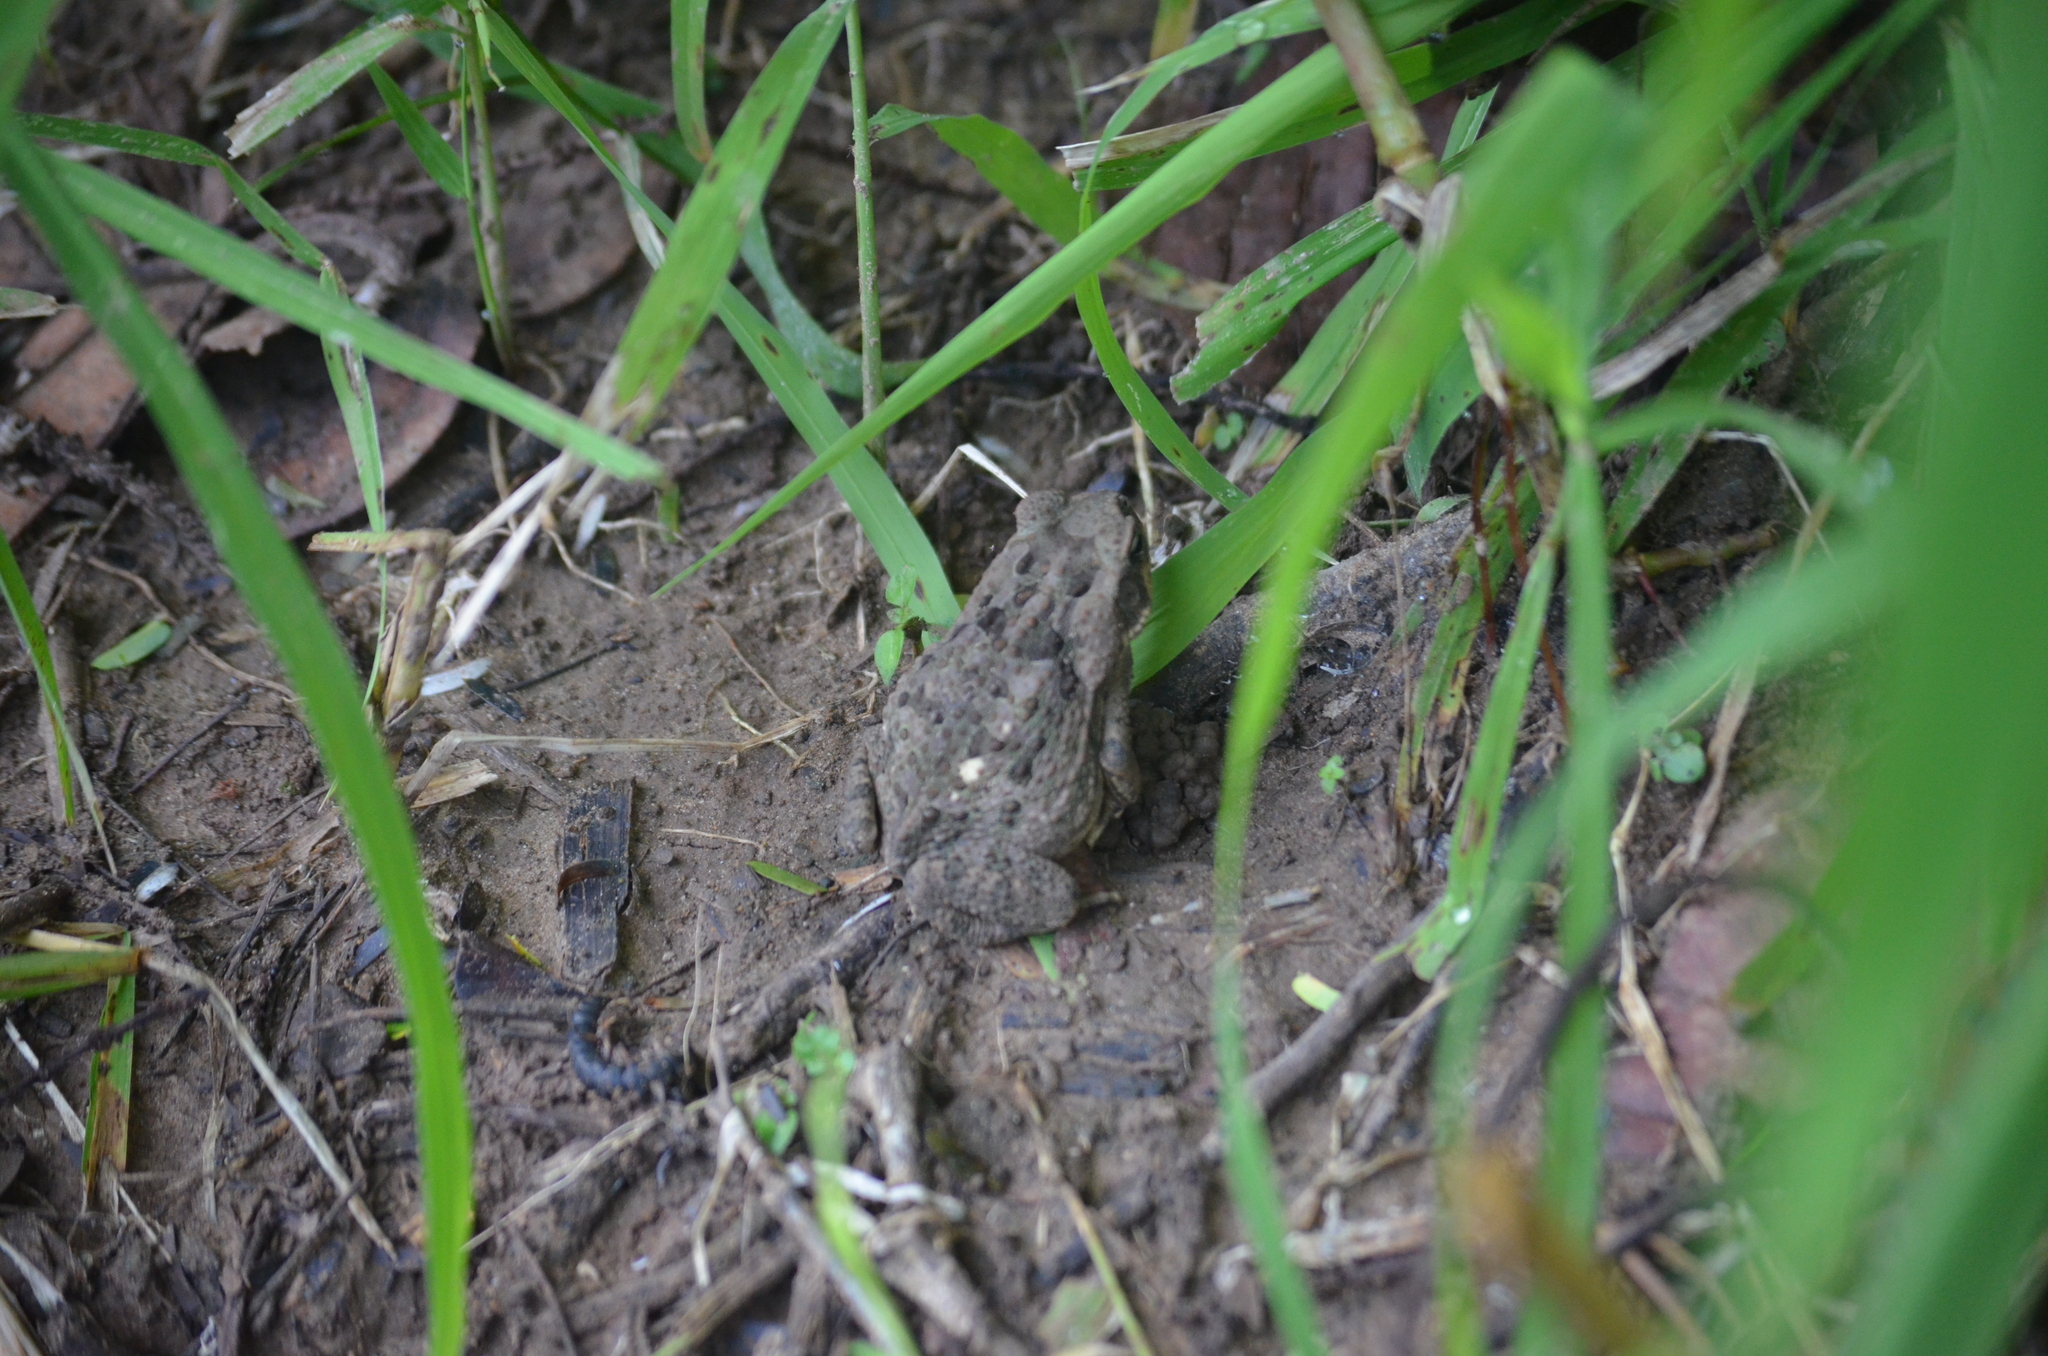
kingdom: Animalia
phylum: Chordata
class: Amphibia
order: Anura
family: Bufonidae
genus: Rhinella
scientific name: Rhinella horribilis
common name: Mesoamerican cane toad
